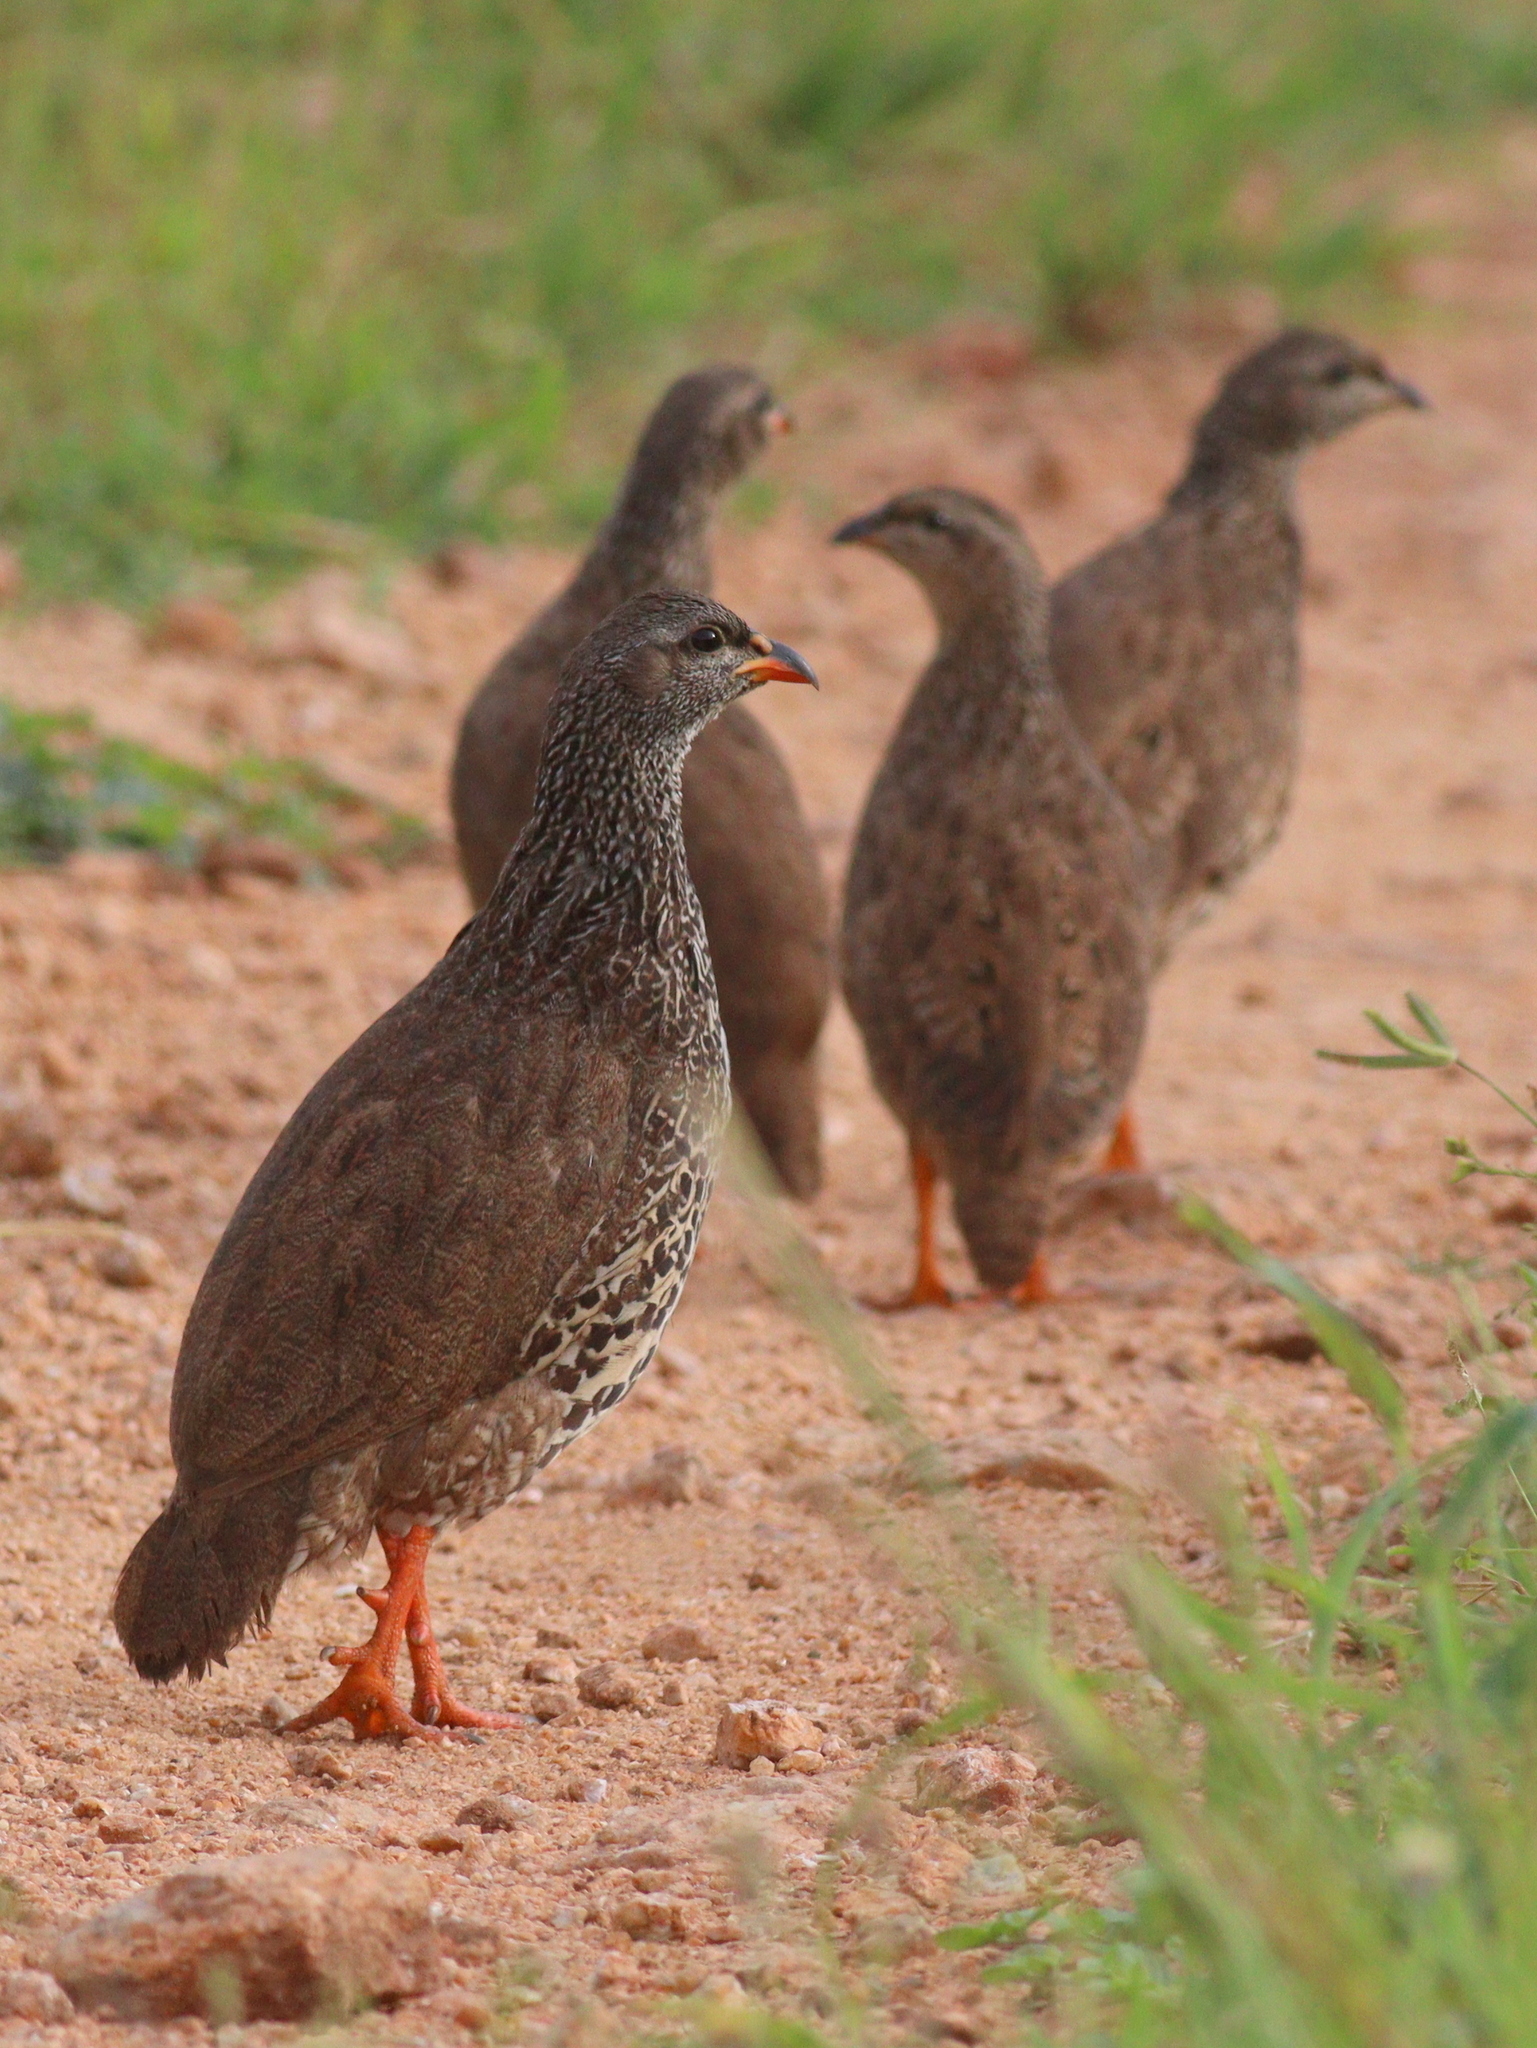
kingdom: Animalia
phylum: Chordata
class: Aves
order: Galliformes
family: Phasianidae
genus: Pternistis
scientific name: Pternistis hildebrandti
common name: Hildebrandt's francolin
